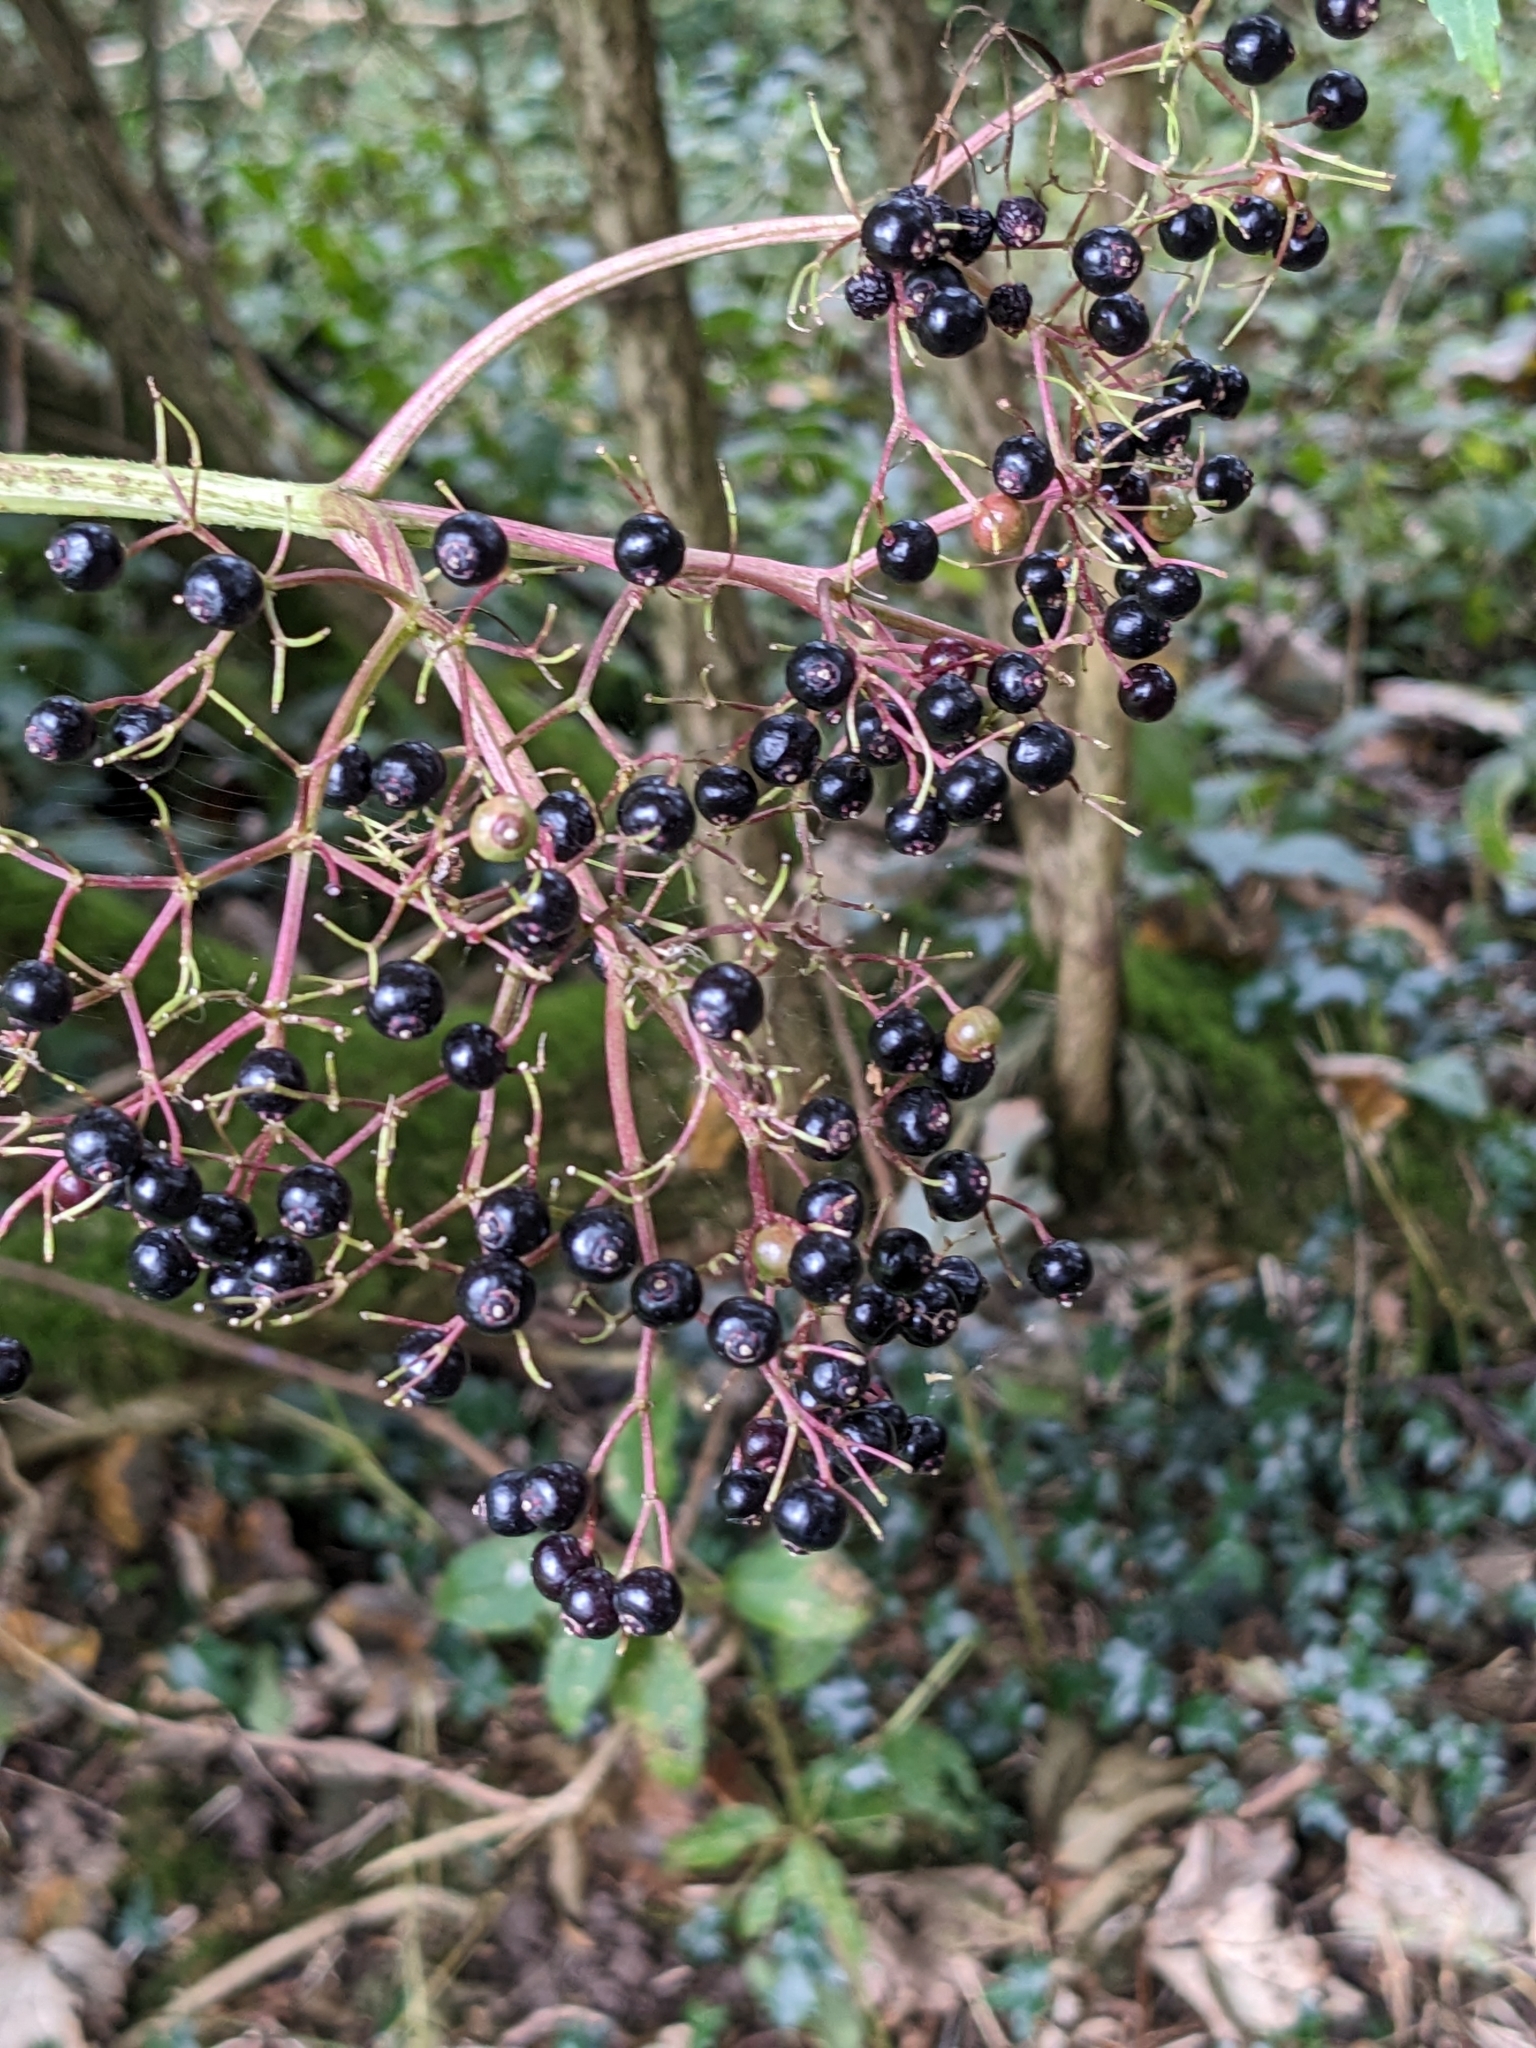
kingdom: Plantae
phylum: Tracheophyta
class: Magnoliopsida
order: Dipsacales
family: Viburnaceae
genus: Sambucus
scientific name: Sambucus nigra
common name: Elder
